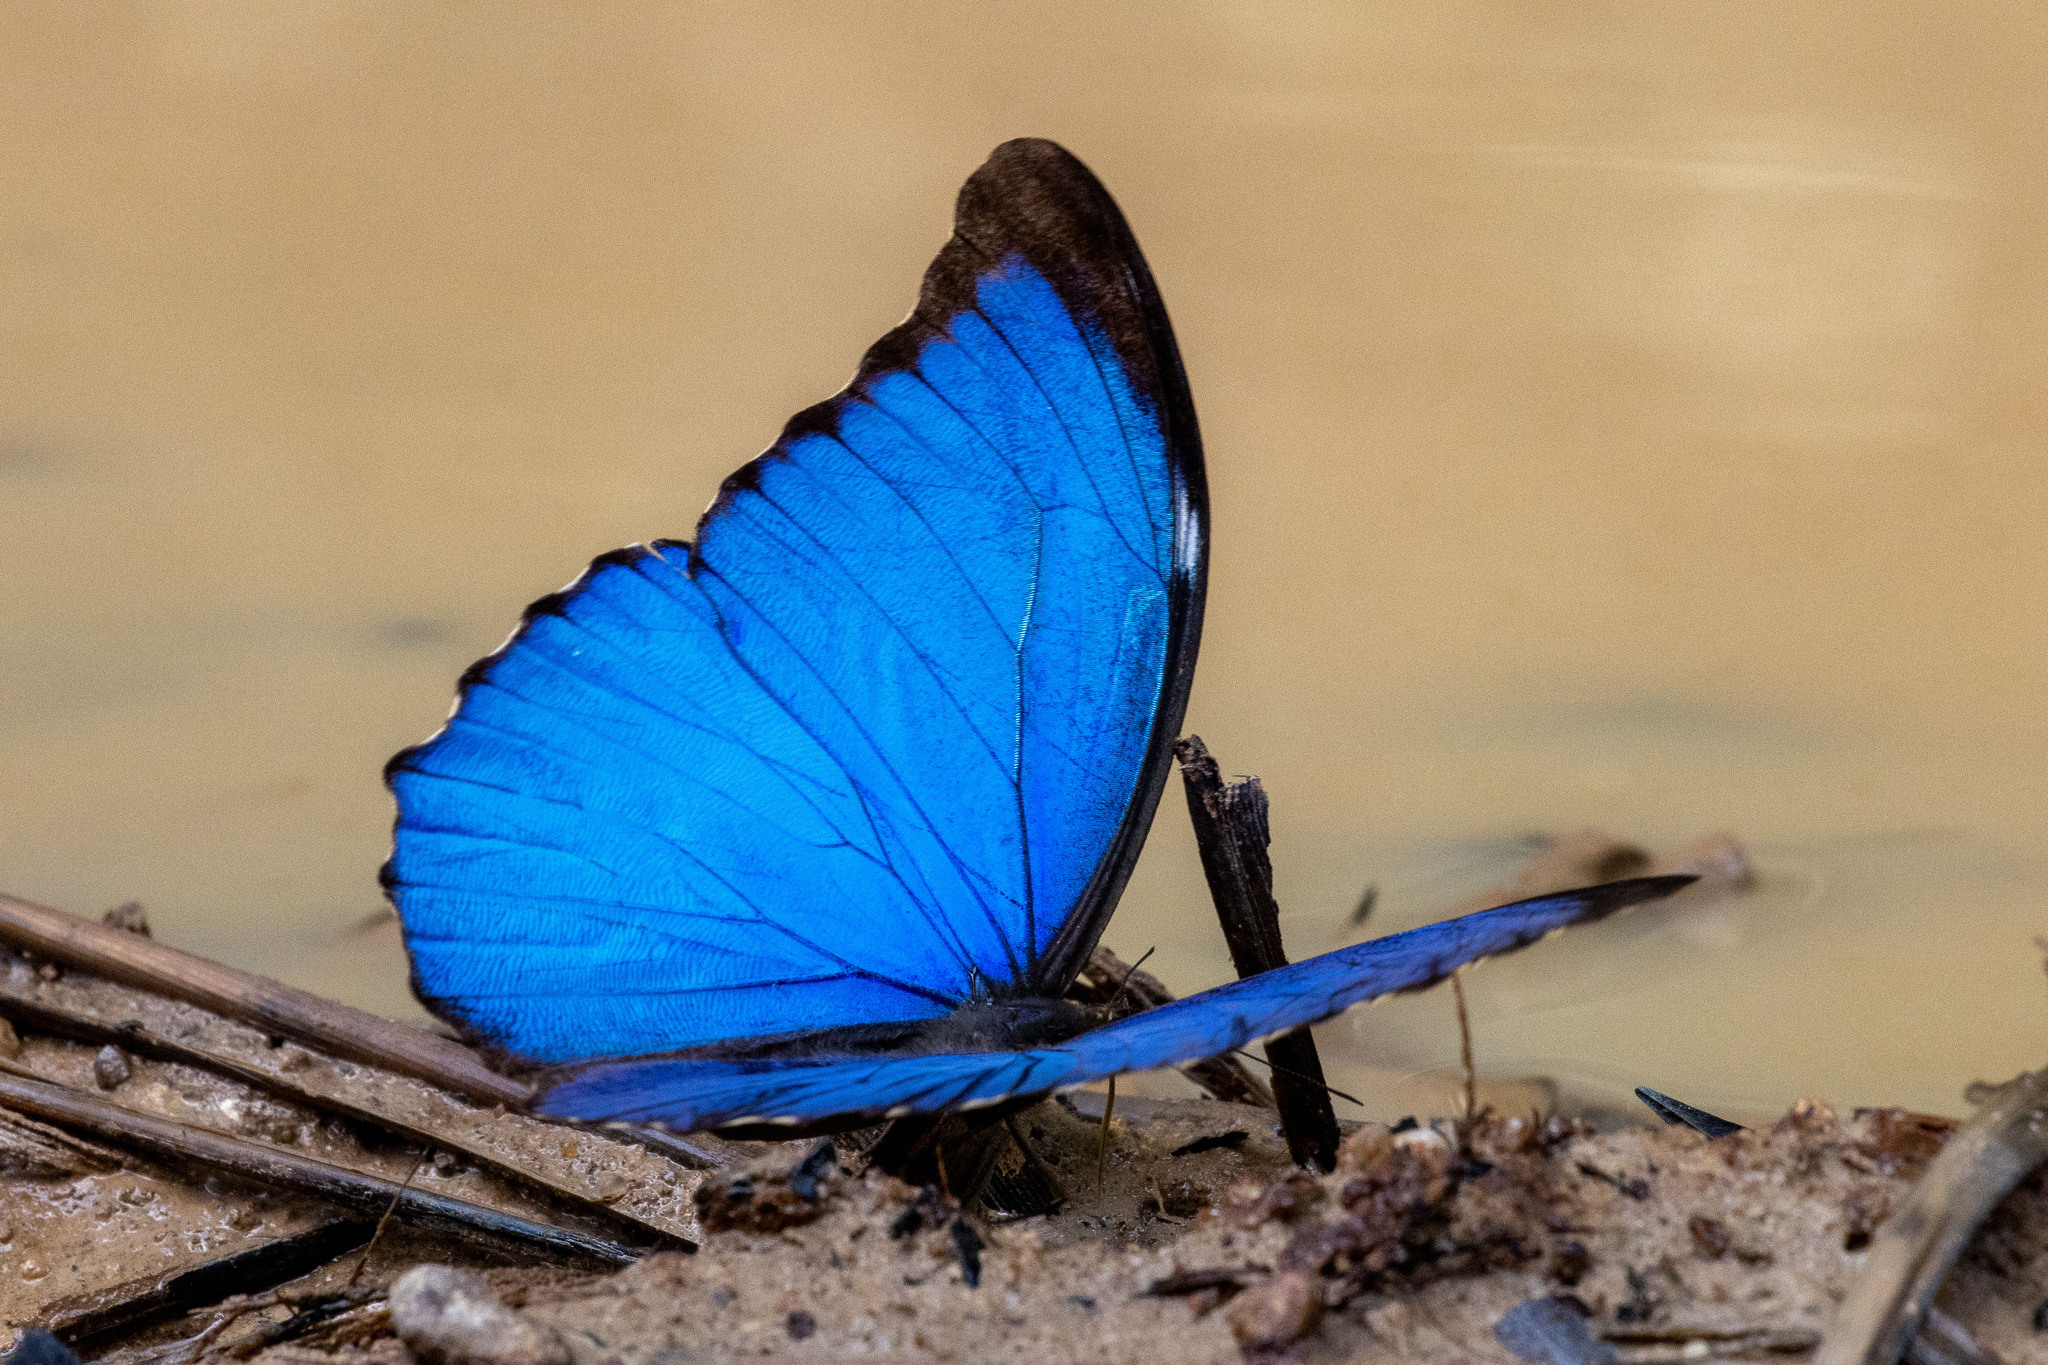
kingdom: Animalia
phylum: Arthropoda
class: Insecta
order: Lepidoptera
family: Nymphalidae
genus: Morpho
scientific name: Morpho menelaus
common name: Menelaus morpho
